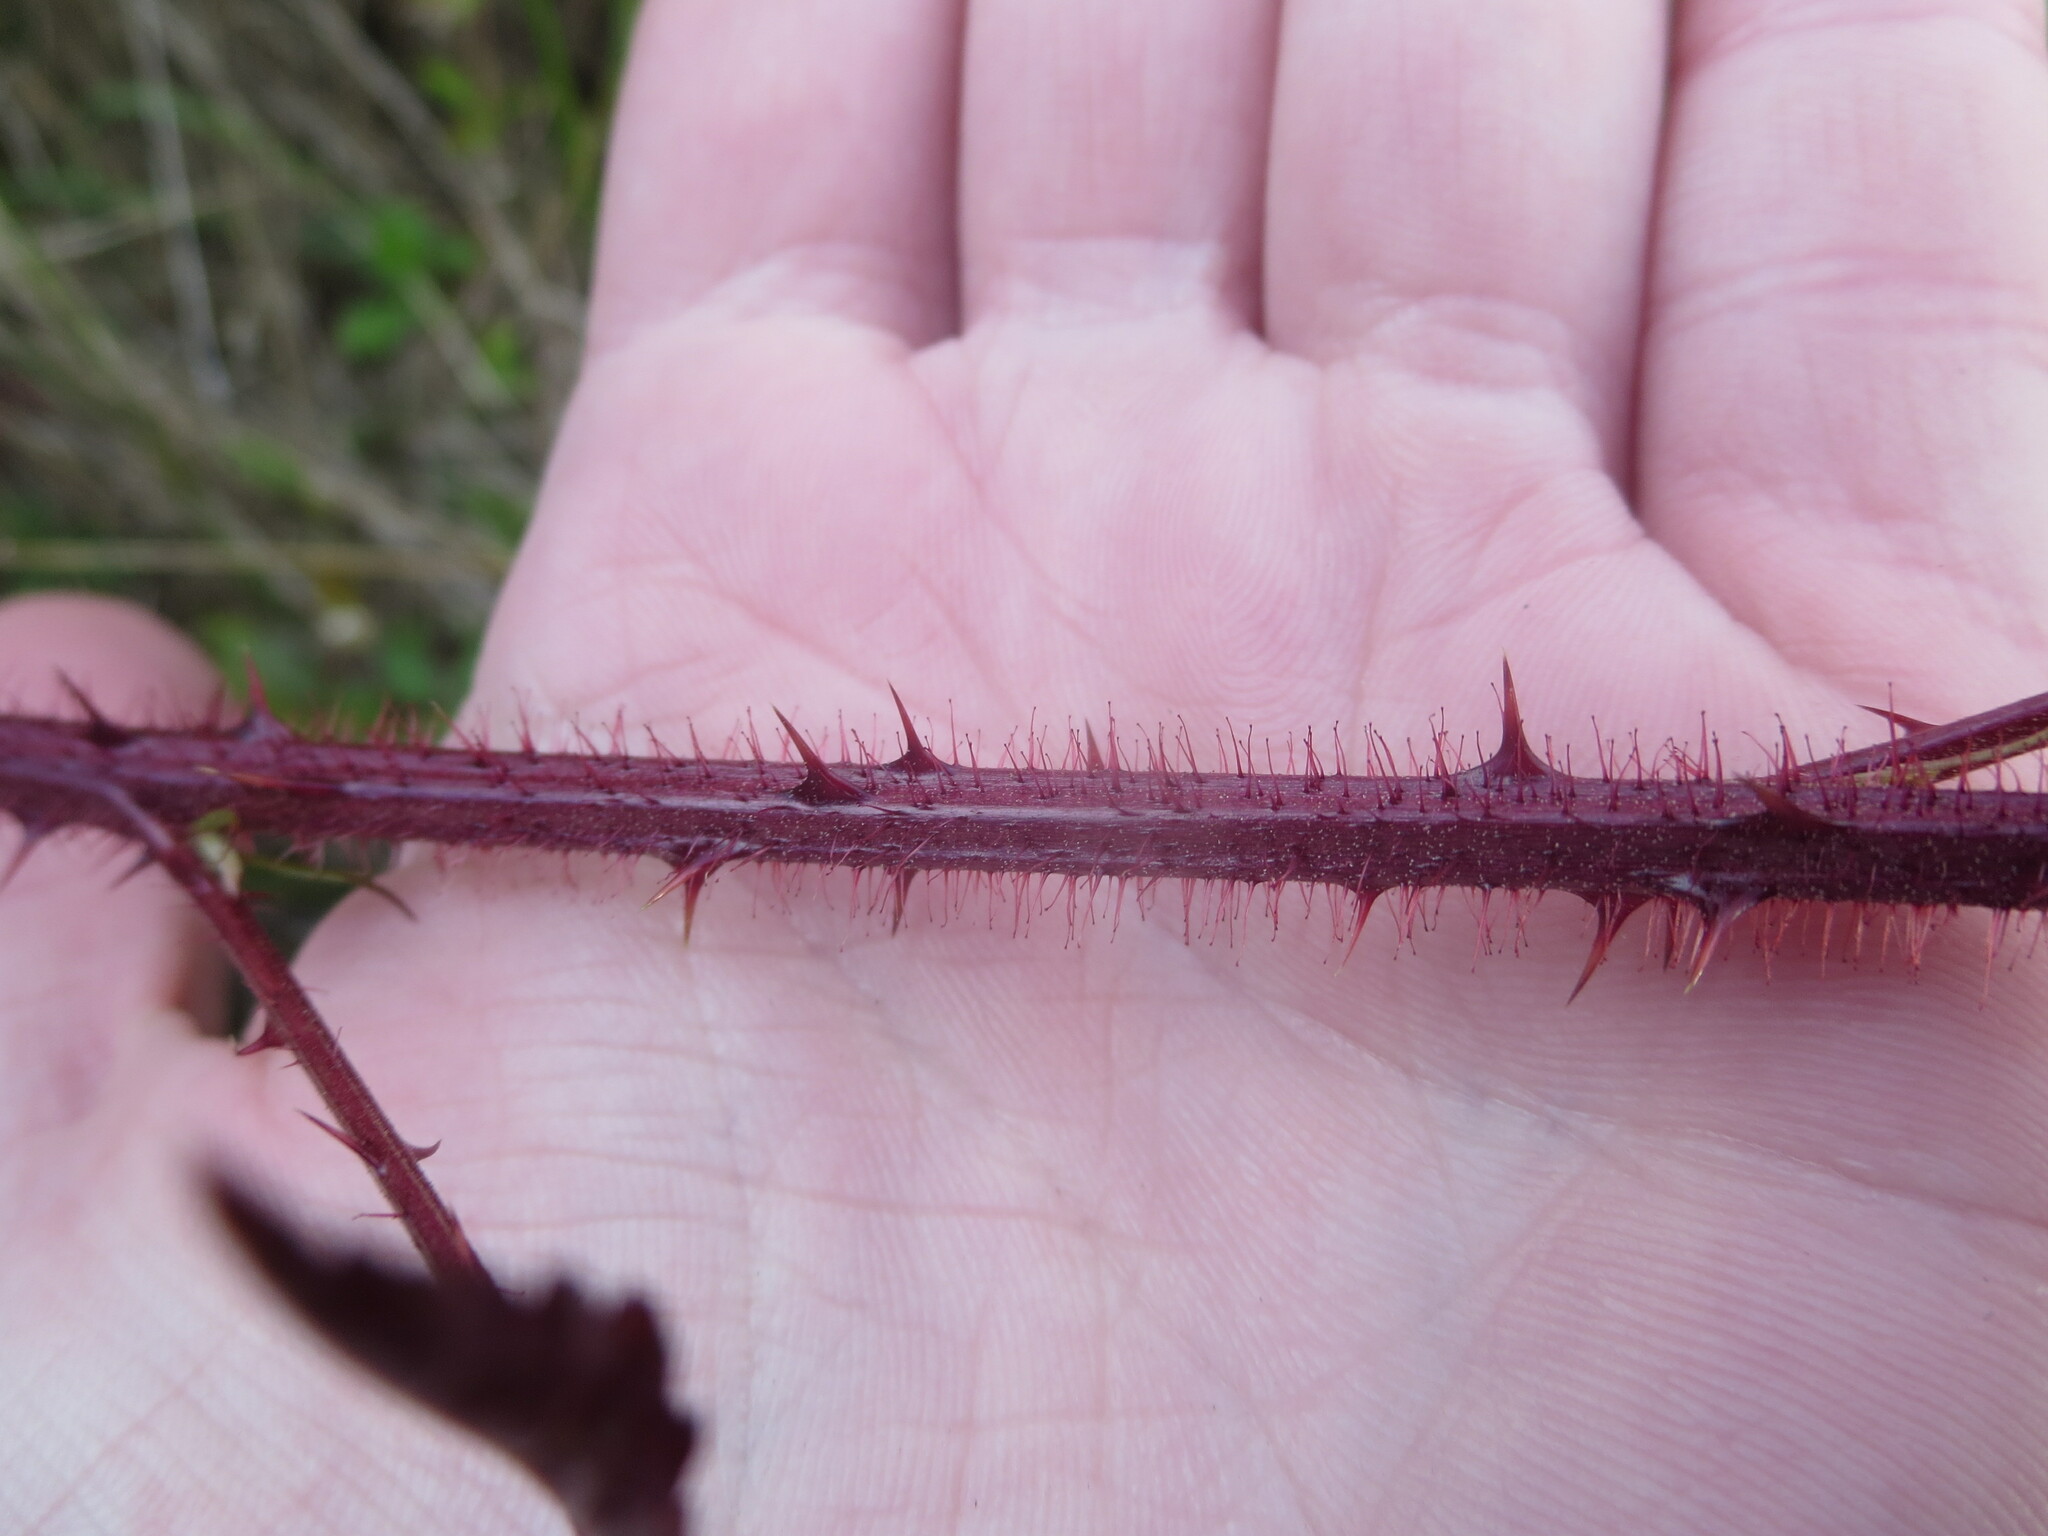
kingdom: Plantae
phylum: Tracheophyta
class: Magnoliopsida
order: Rosales
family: Rosaceae
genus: Rubus
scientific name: Rubus trivialis
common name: Southern dewberry
